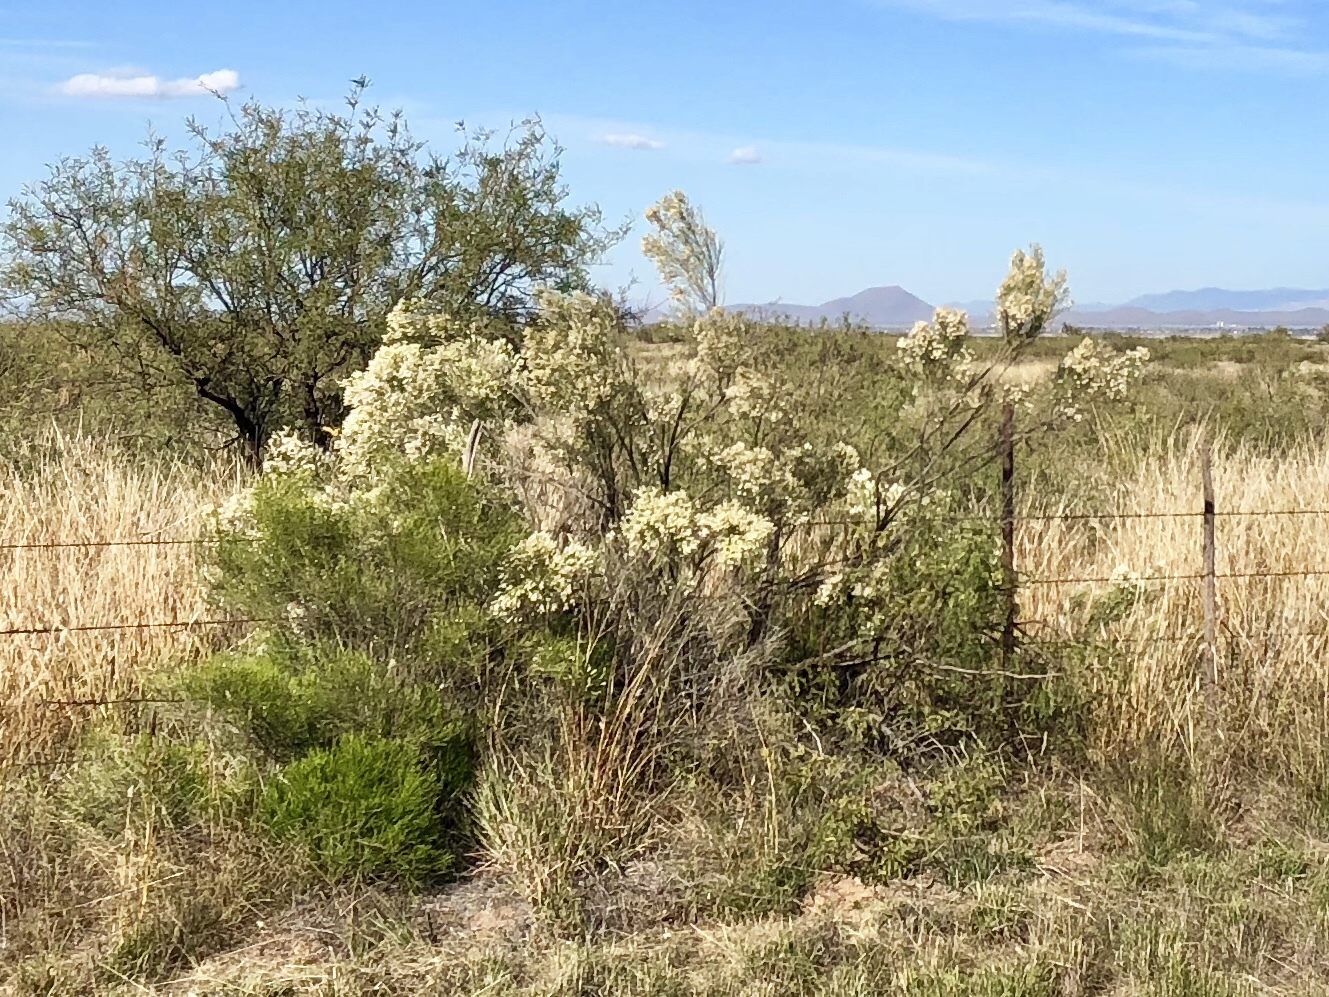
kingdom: Plantae
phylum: Tracheophyta
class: Magnoliopsida
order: Asterales
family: Asteraceae
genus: Baccharis
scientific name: Baccharis sarothroides
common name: Desert-broom
